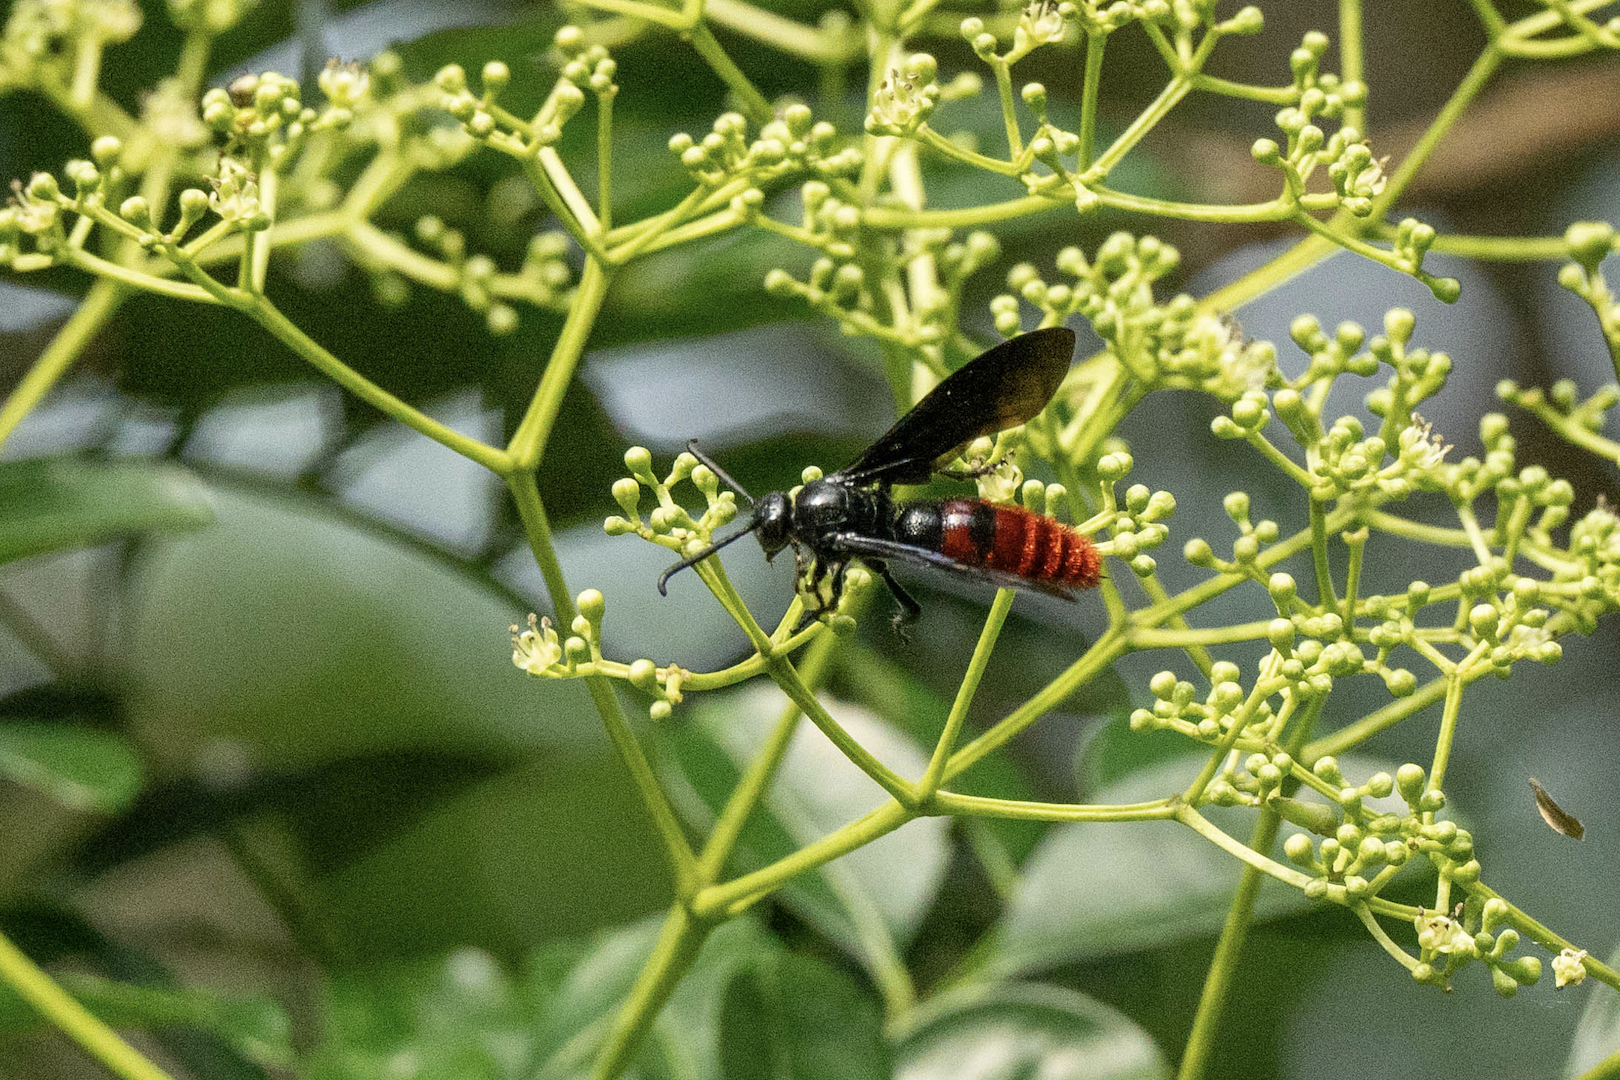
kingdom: Animalia
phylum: Arthropoda
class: Insecta
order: Hymenoptera
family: Scoliidae
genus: Liacos
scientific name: Liacos erythrosoma
